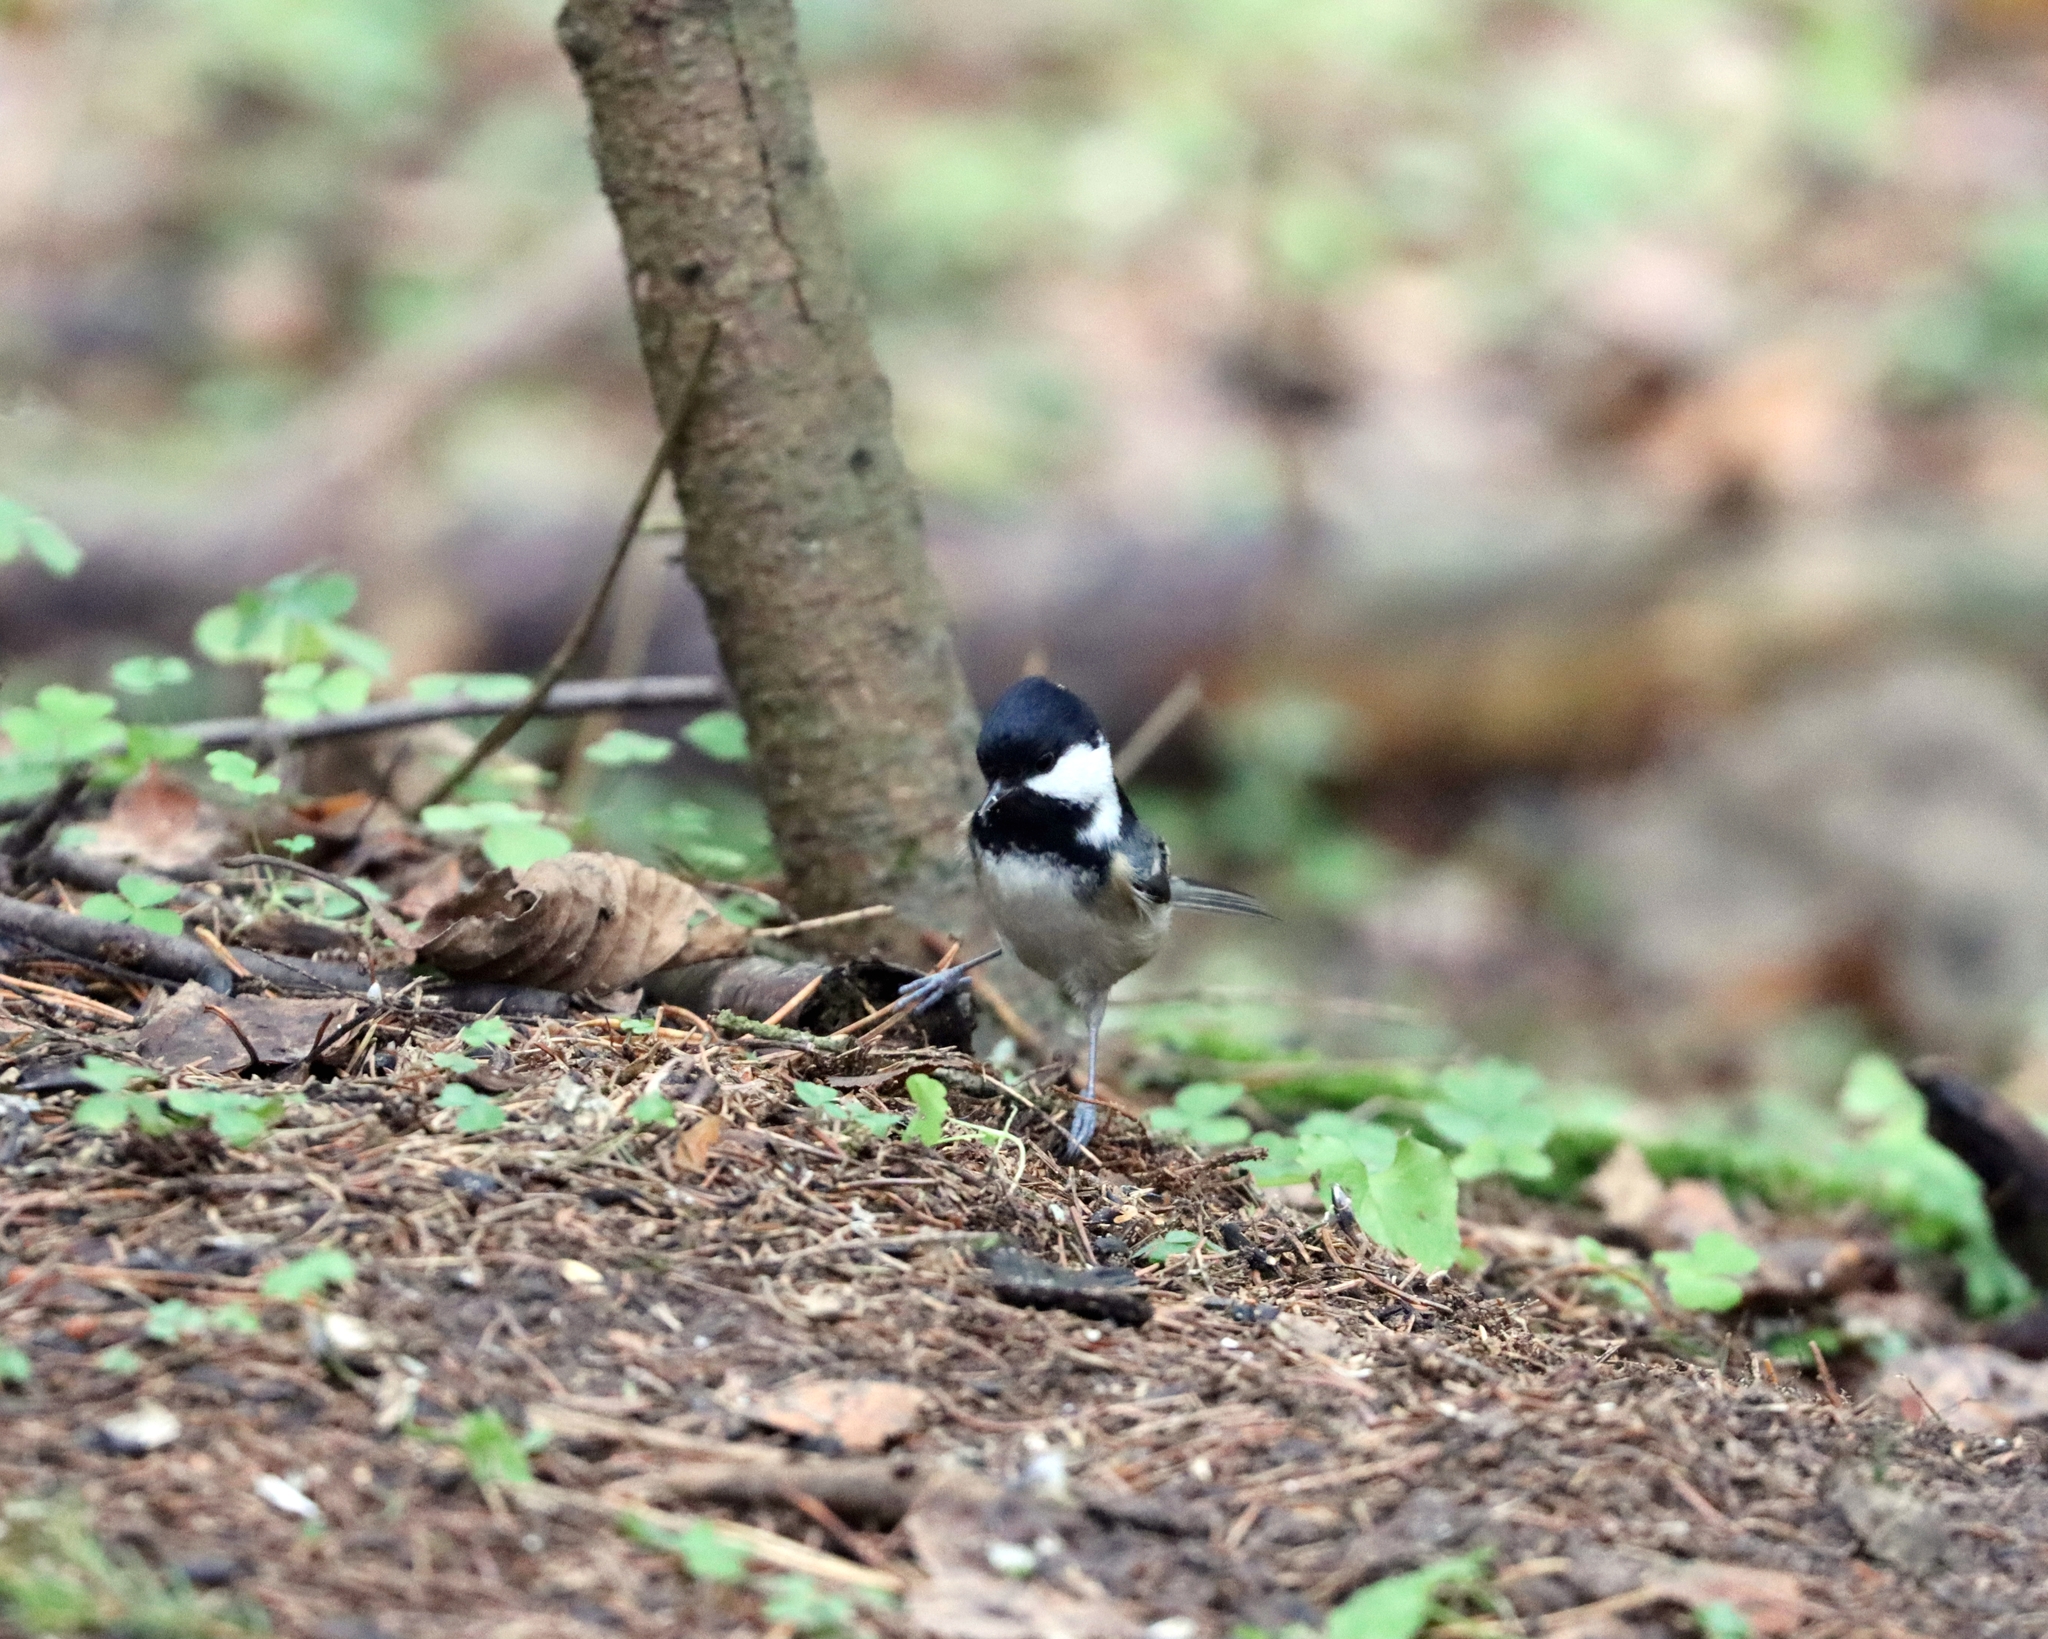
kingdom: Animalia
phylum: Chordata
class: Aves
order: Passeriformes
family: Paridae
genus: Periparus
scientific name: Periparus ater
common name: Coal tit
